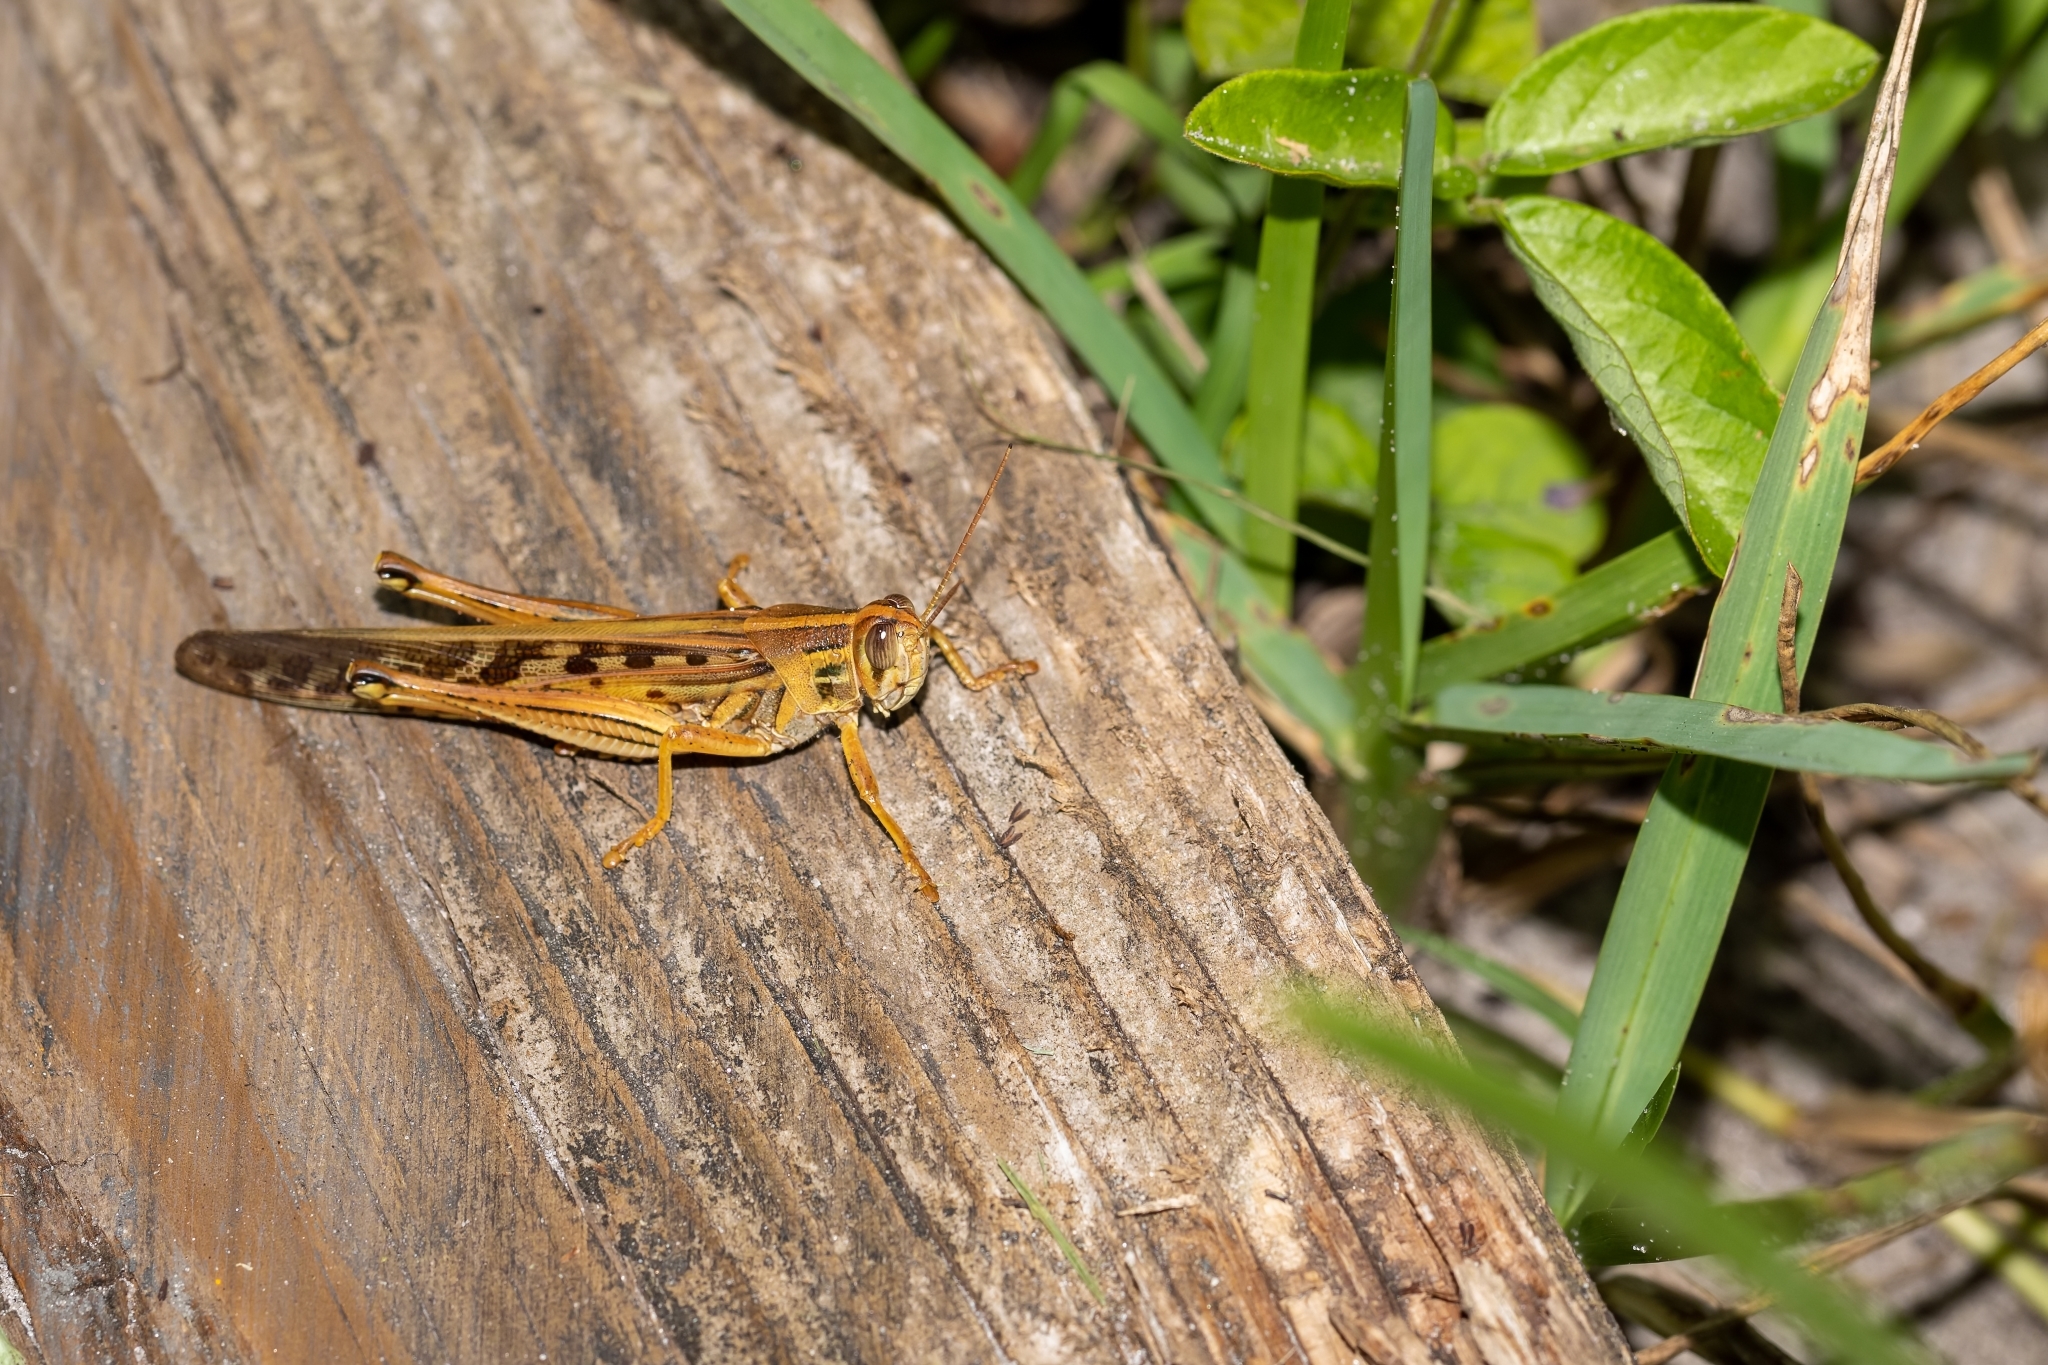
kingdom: Animalia
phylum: Arthropoda
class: Insecta
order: Orthoptera
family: Acrididae
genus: Schistocerca
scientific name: Schistocerca americana
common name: American bird locust
